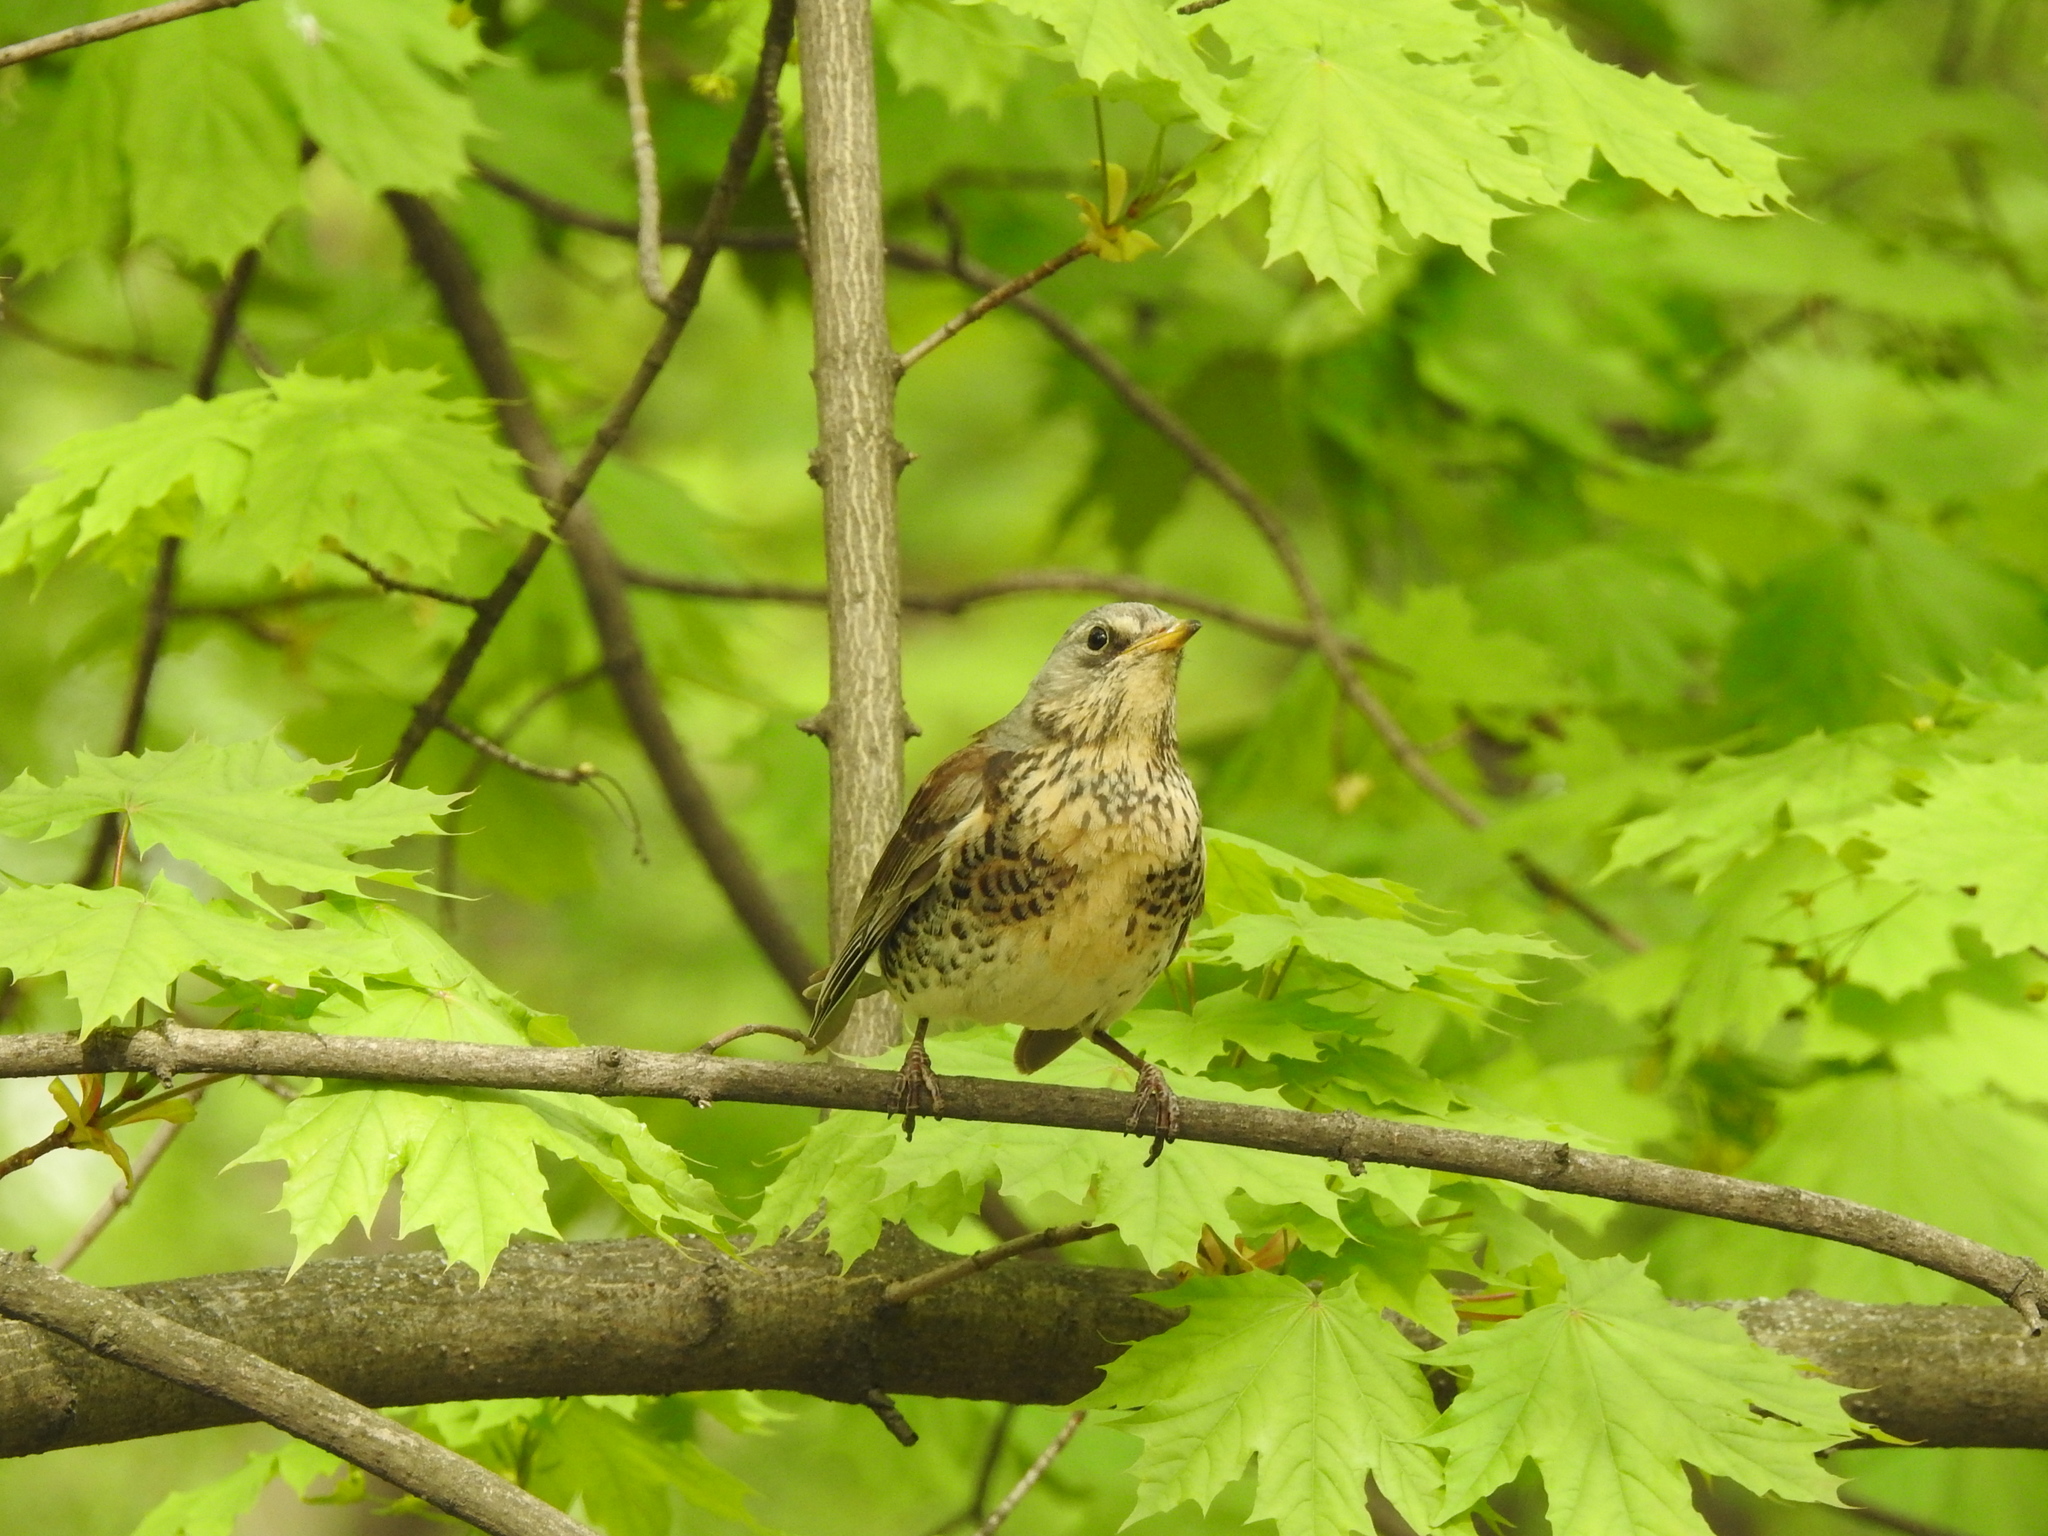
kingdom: Animalia
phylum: Chordata
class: Aves
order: Passeriformes
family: Turdidae
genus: Turdus
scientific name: Turdus pilaris
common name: Fieldfare
